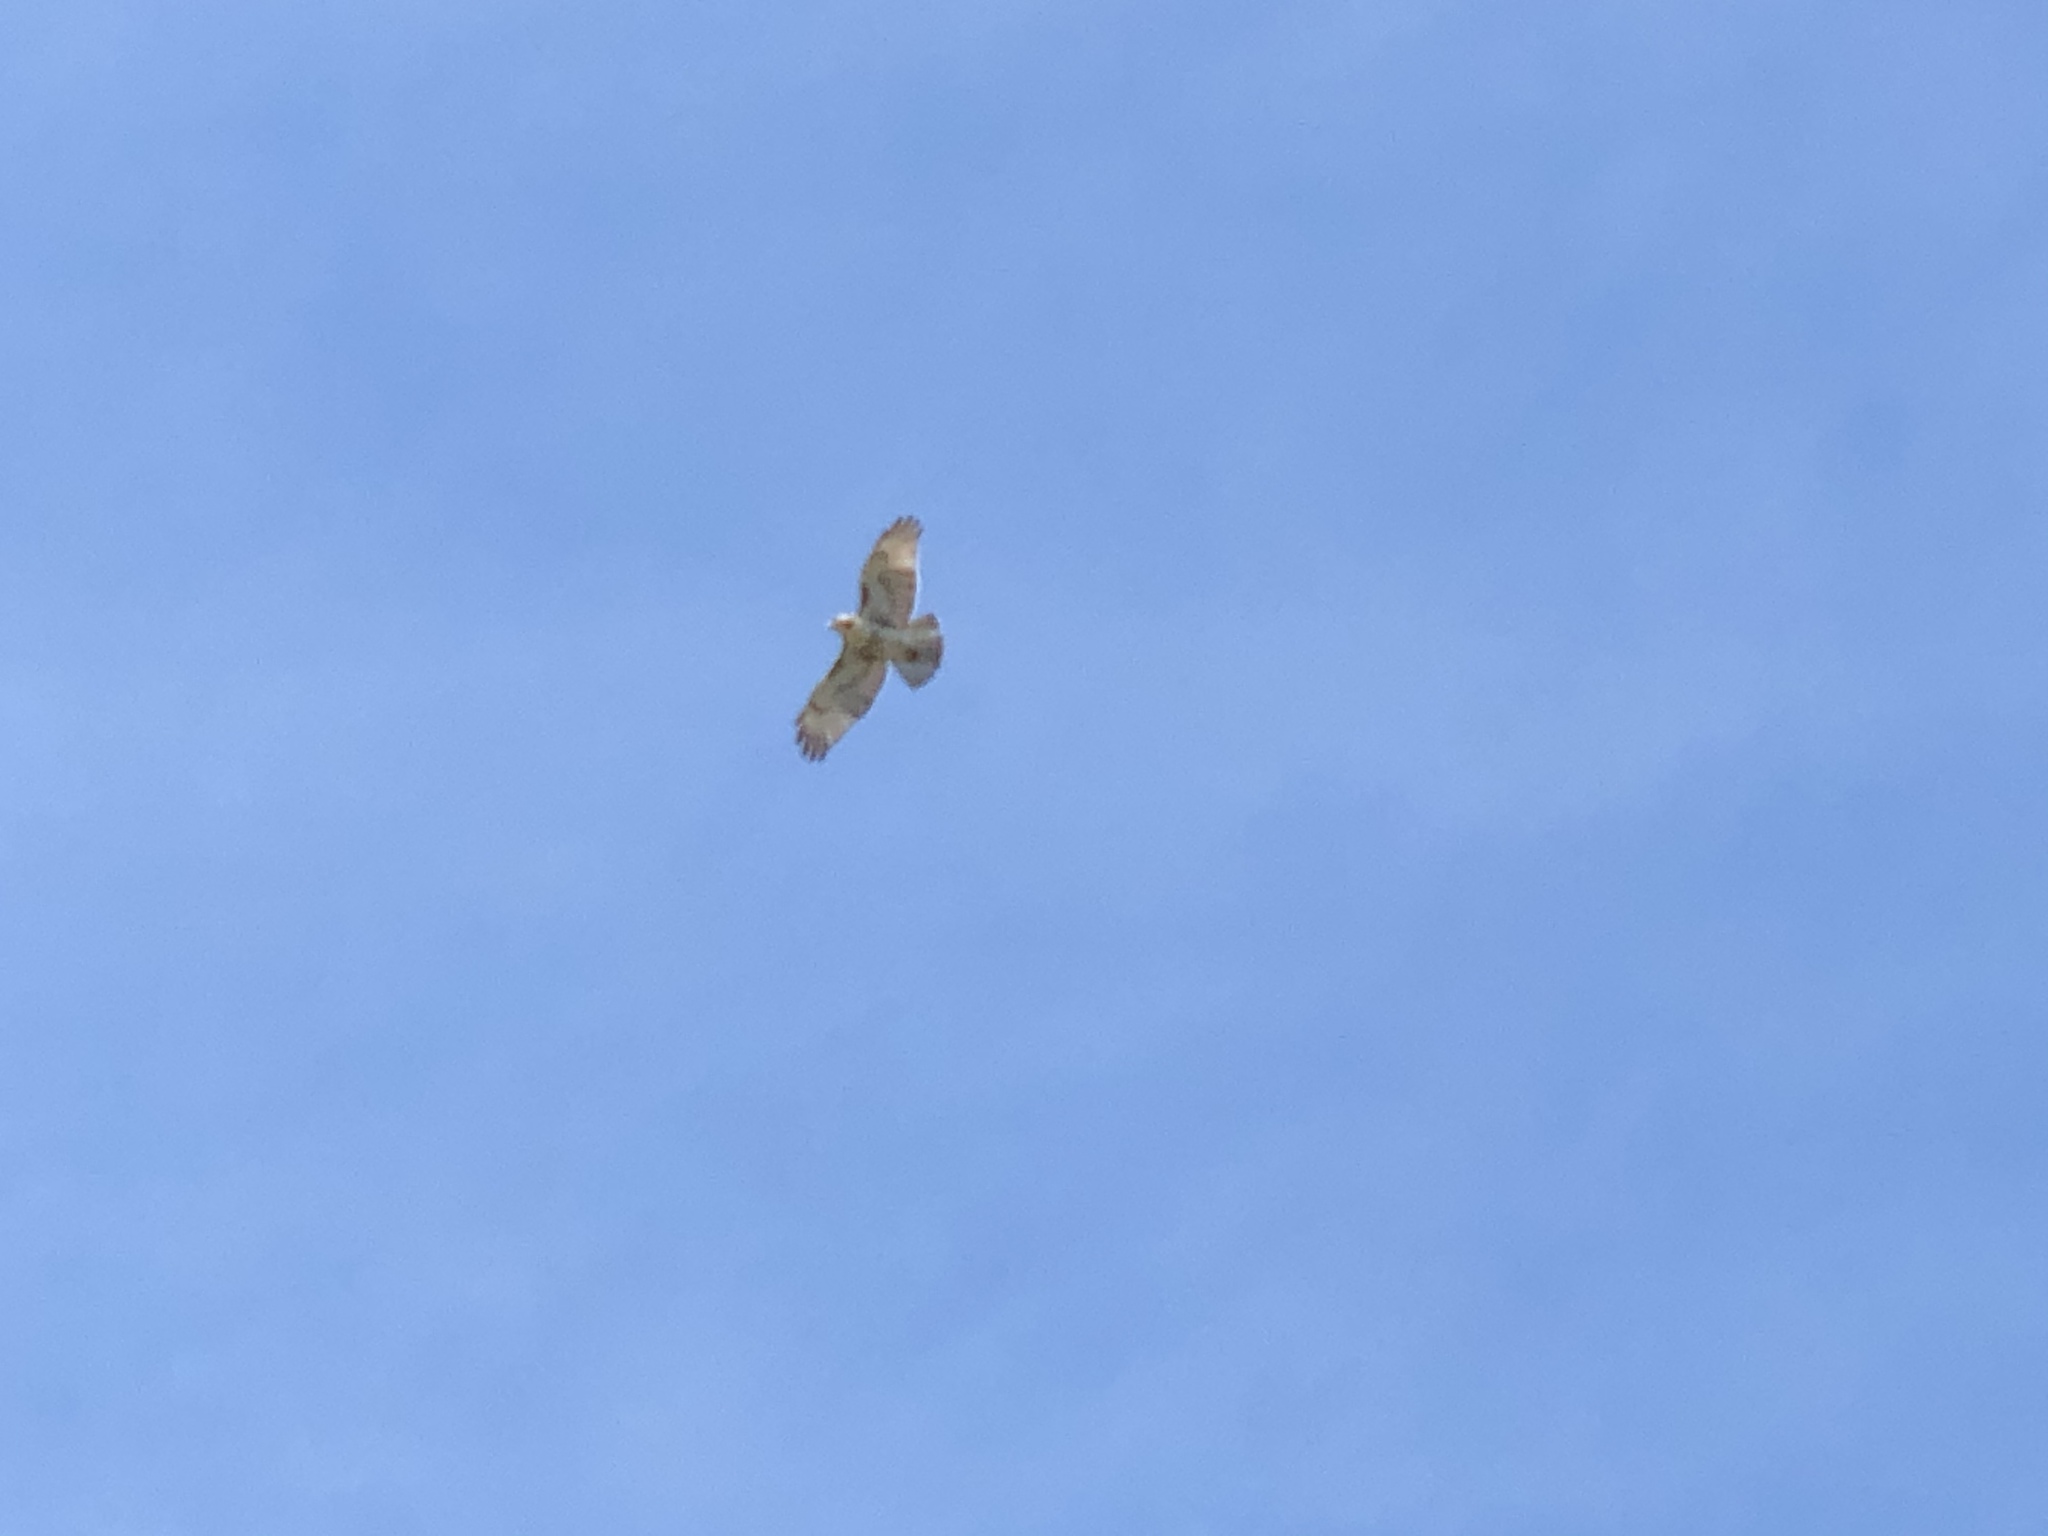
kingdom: Animalia
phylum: Chordata
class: Aves
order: Accipitriformes
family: Accipitridae
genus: Buteo
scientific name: Buteo jamaicensis
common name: Red-tailed hawk
